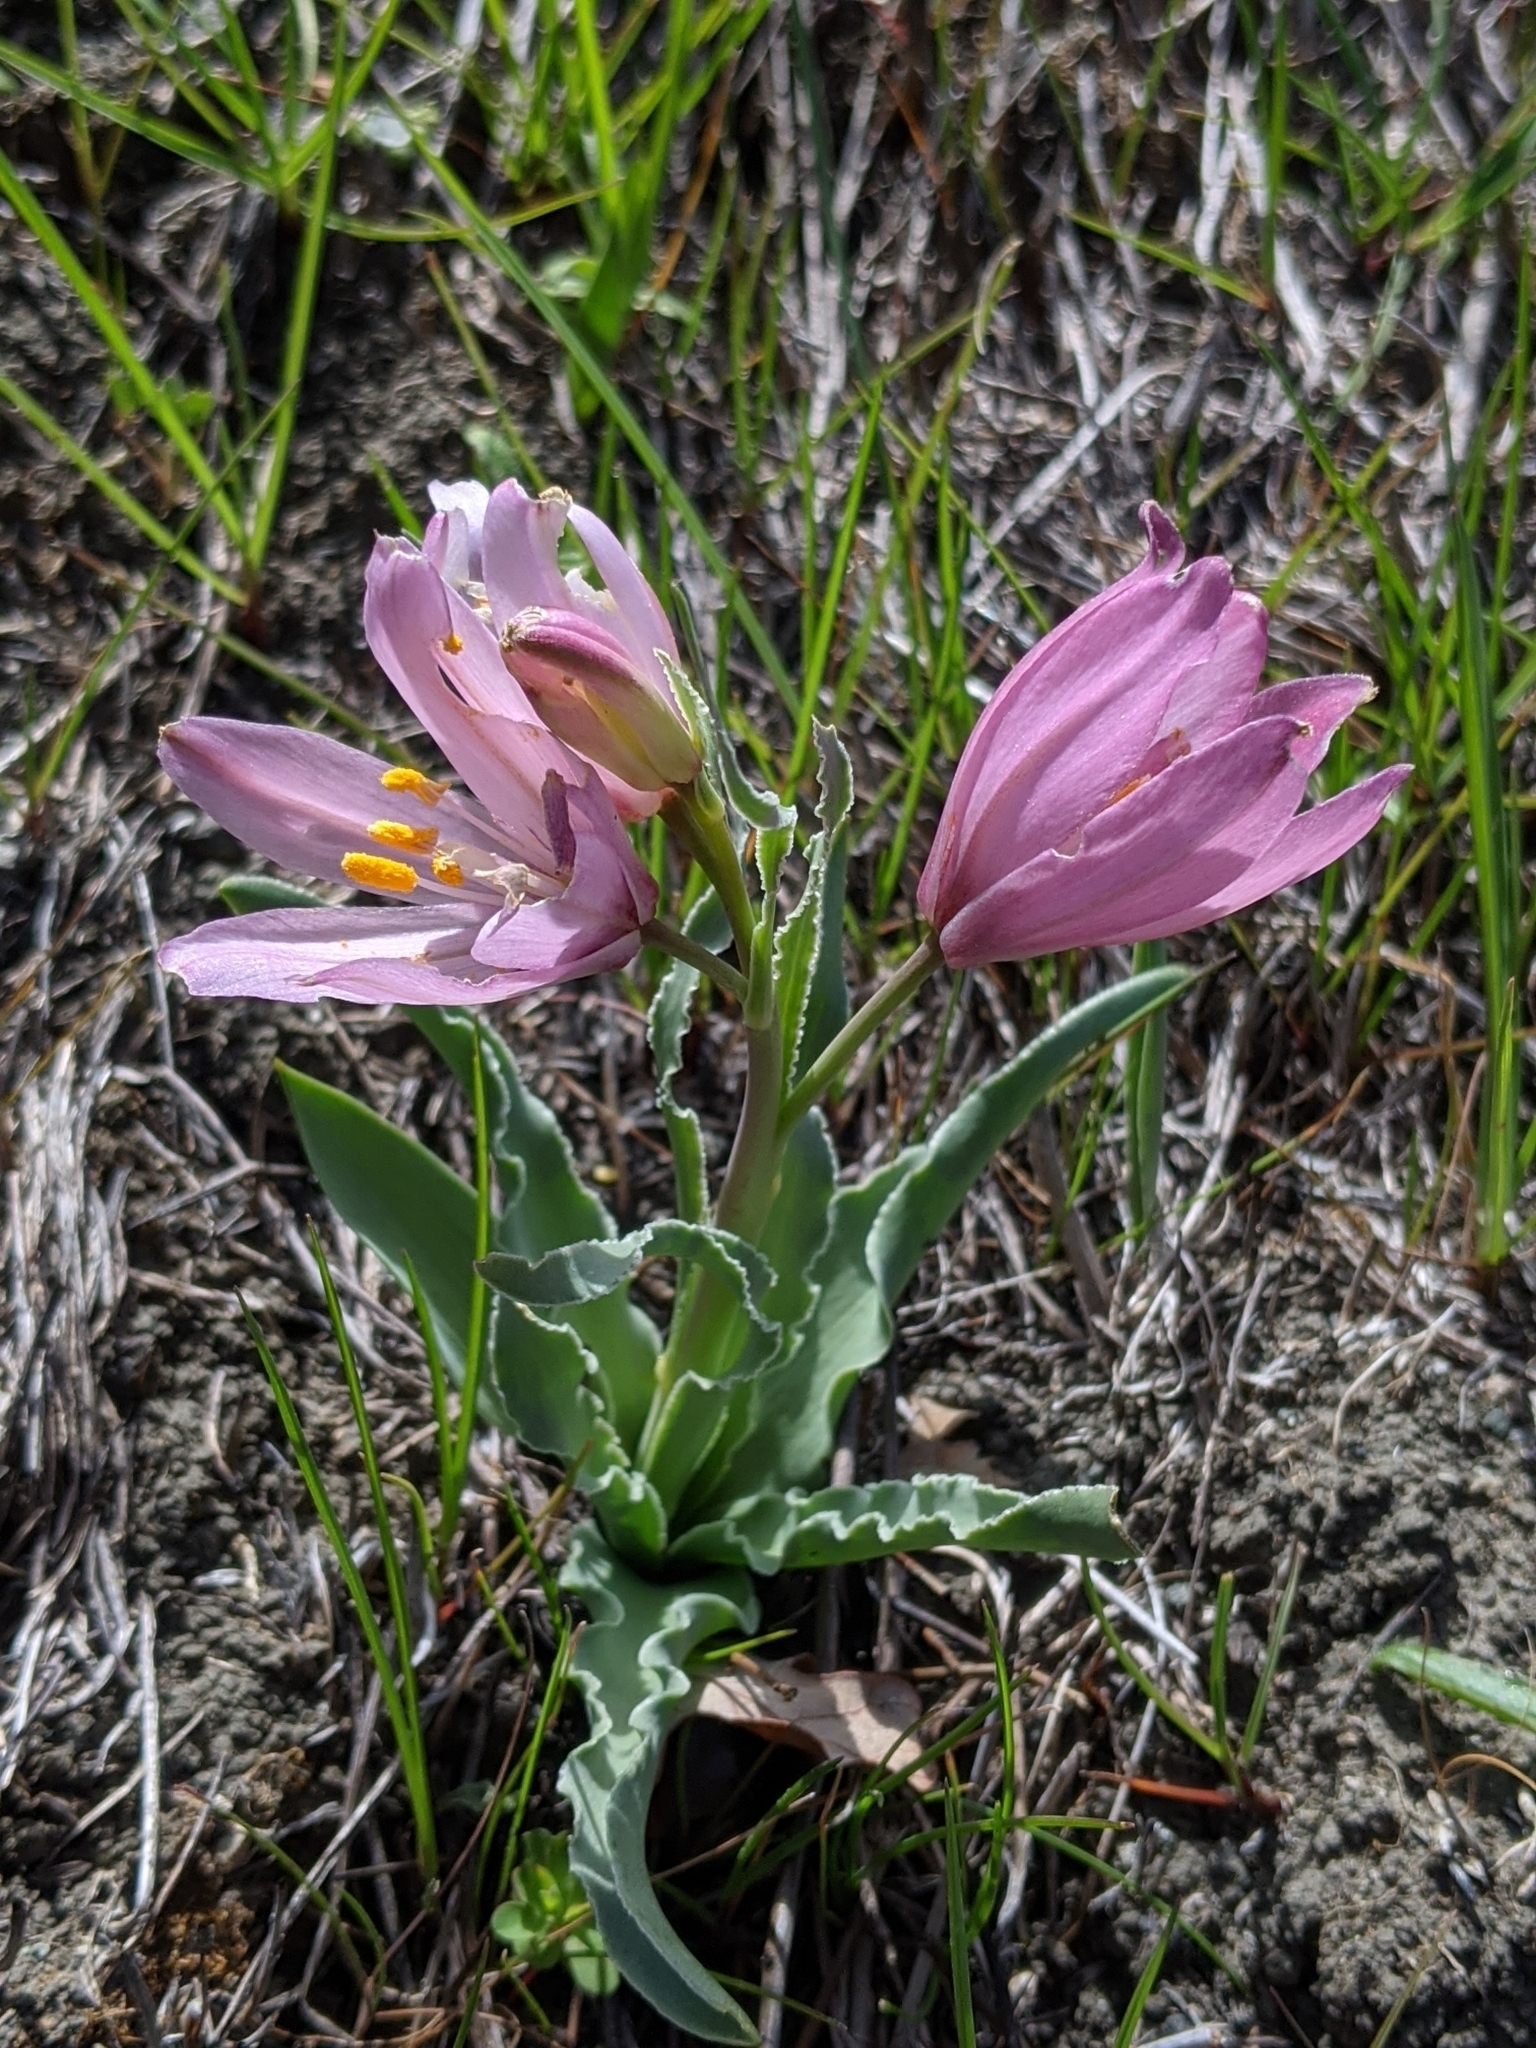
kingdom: Plantae
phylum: Tracheophyta
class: Liliopsida
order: Liliales
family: Liliaceae
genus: Fritillaria
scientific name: Fritillaria pluriflora
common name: Adobe-lily
